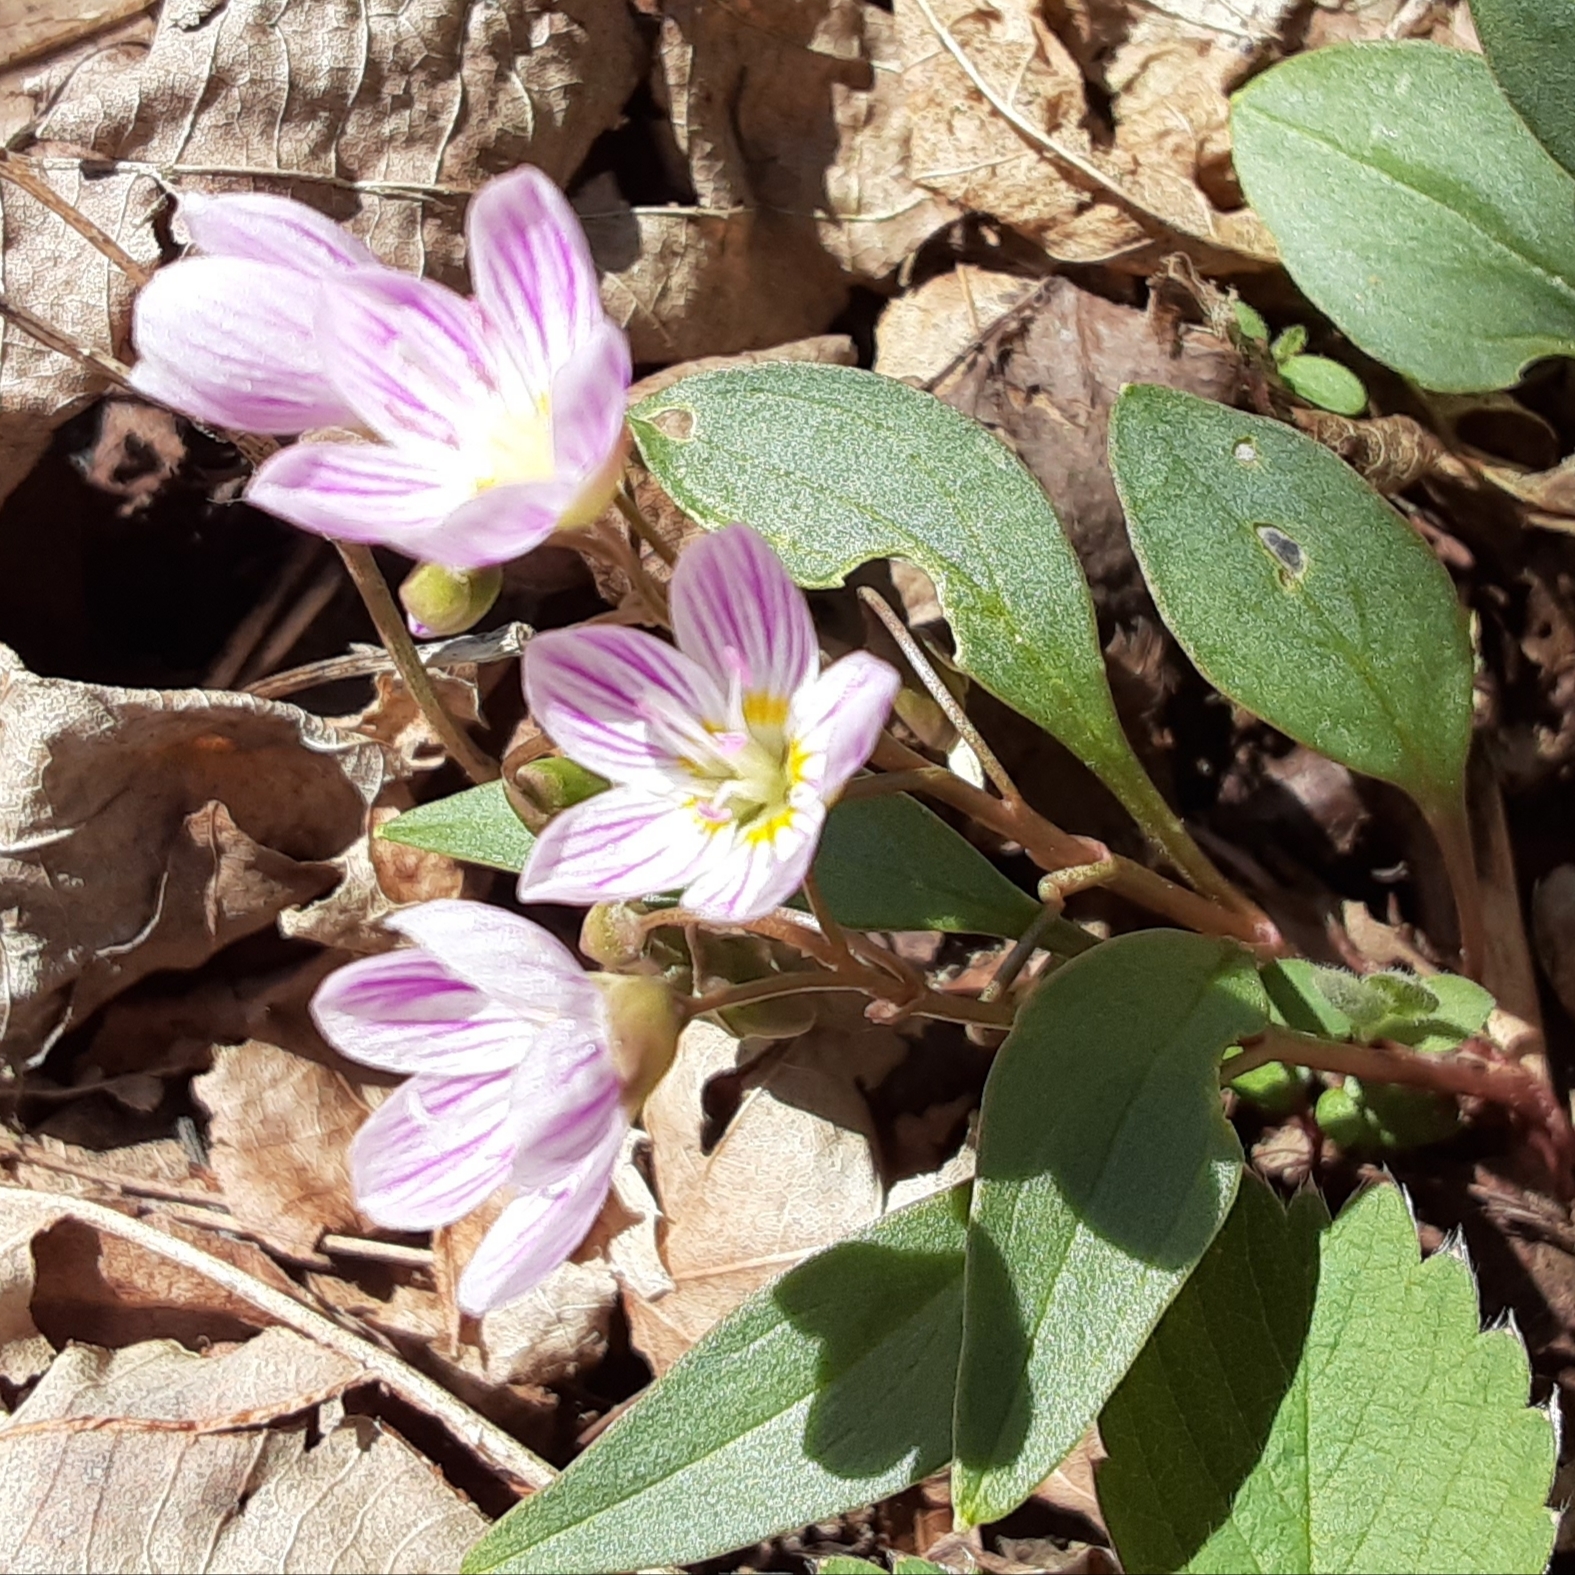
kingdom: Plantae
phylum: Tracheophyta
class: Magnoliopsida
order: Caryophyllales
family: Montiaceae
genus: Claytonia
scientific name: Claytonia caroliniana
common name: Carolina spring beauty
